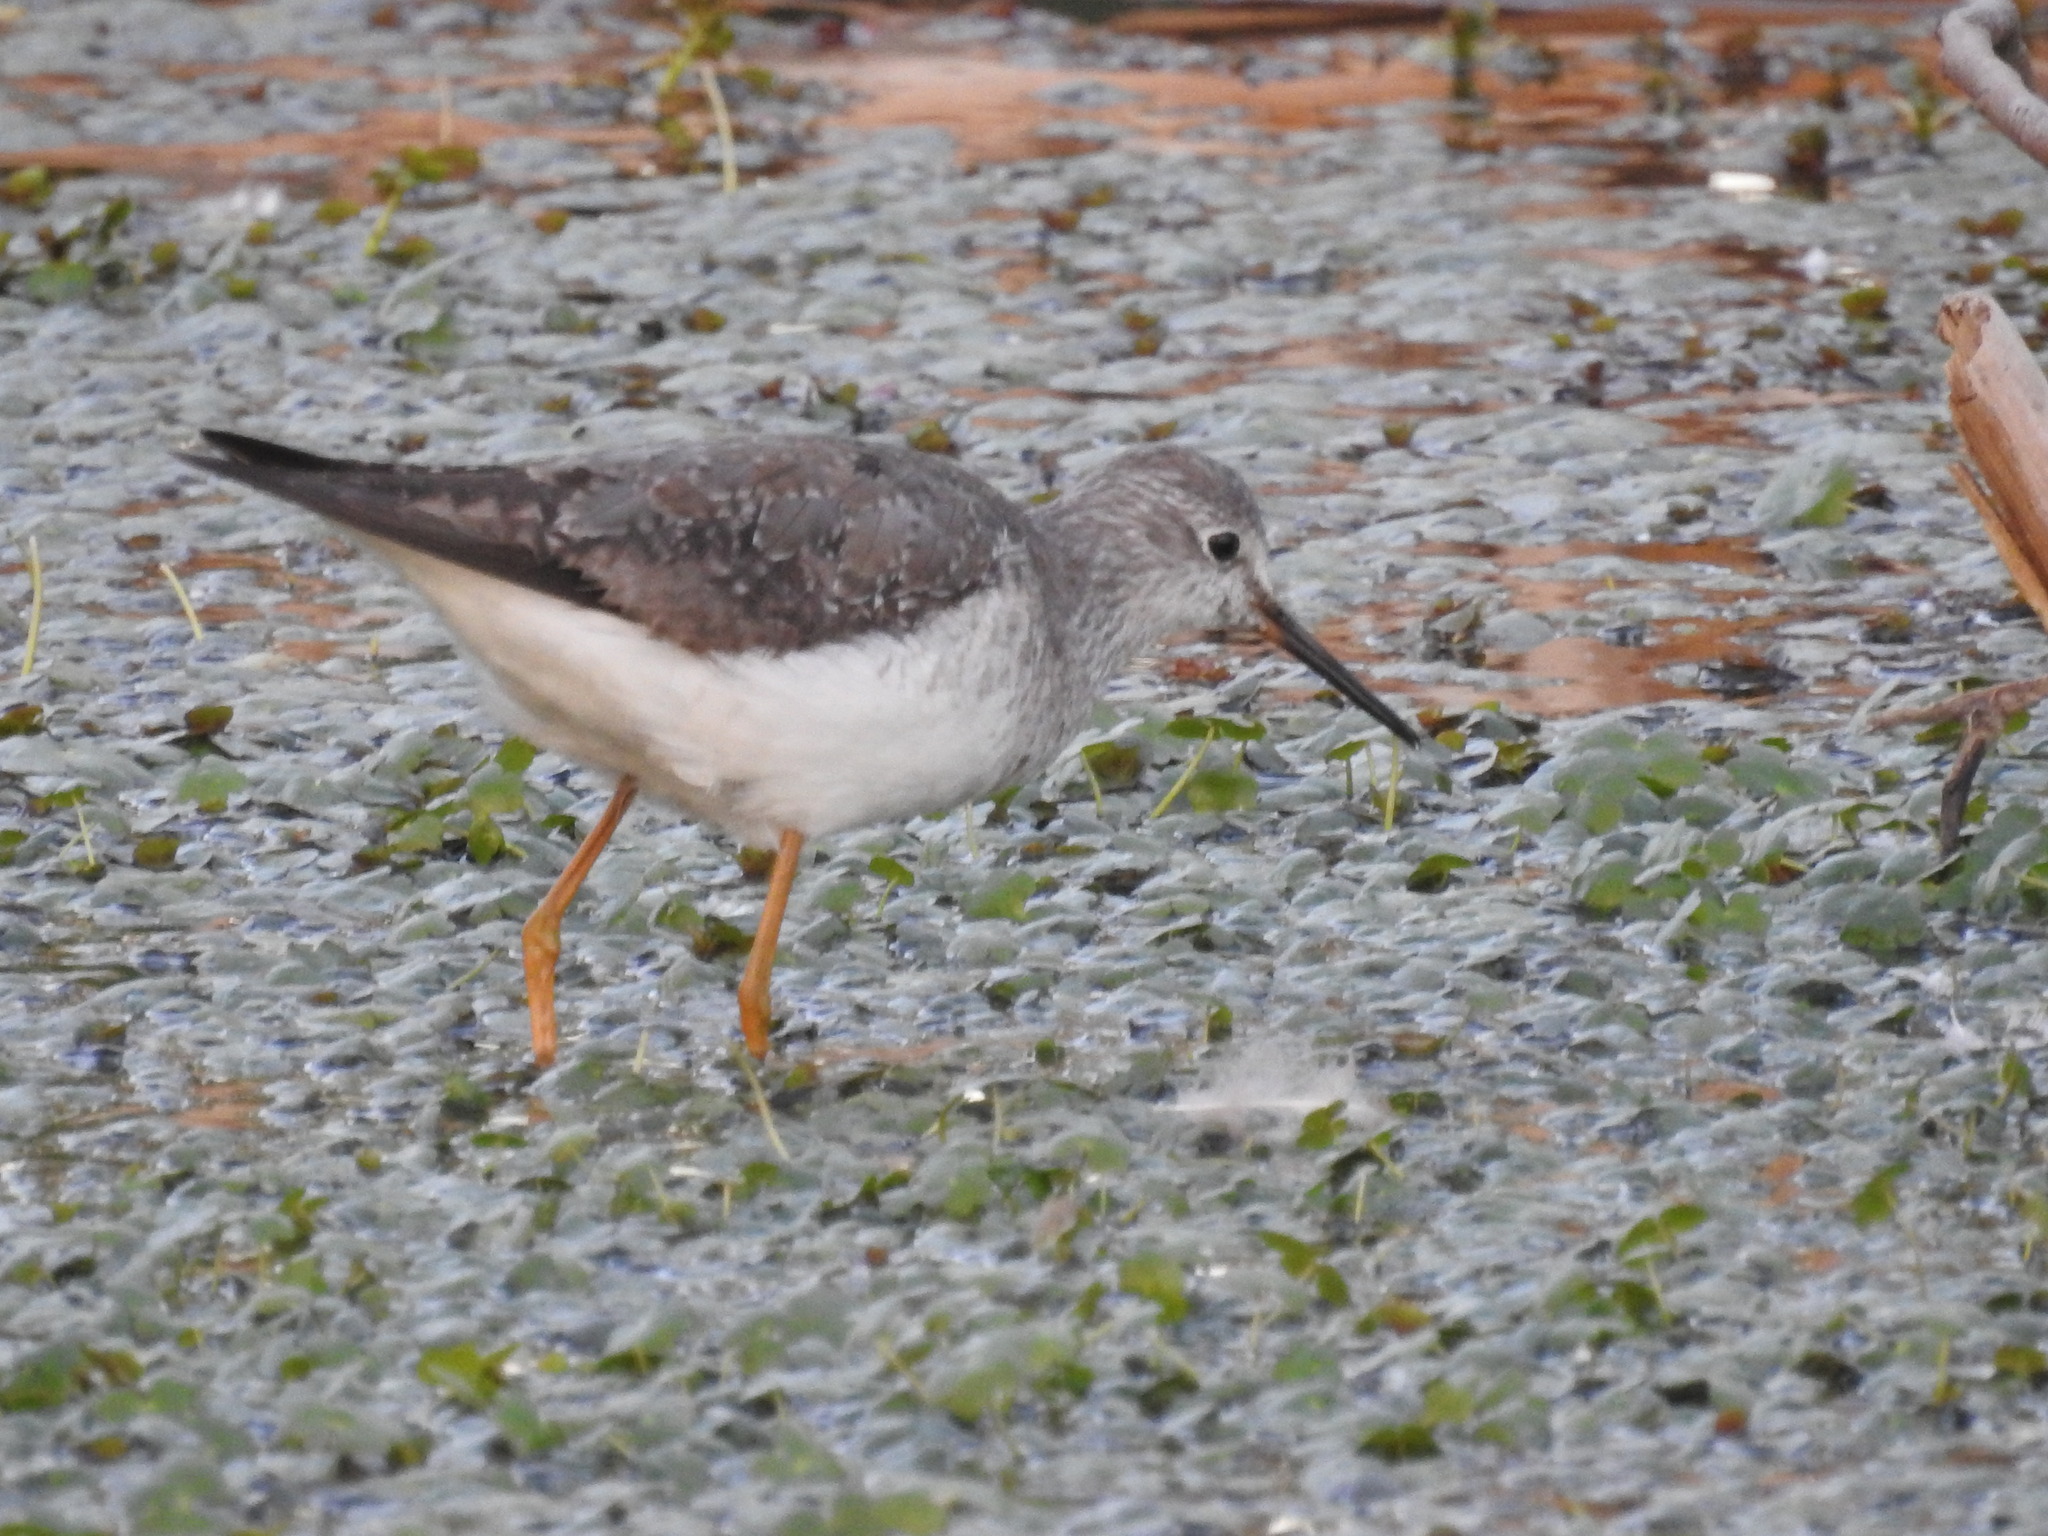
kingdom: Animalia
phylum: Chordata
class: Aves
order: Charadriiformes
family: Scolopacidae
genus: Tringa
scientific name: Tringa flavipes
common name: Lesser yellowlegs
